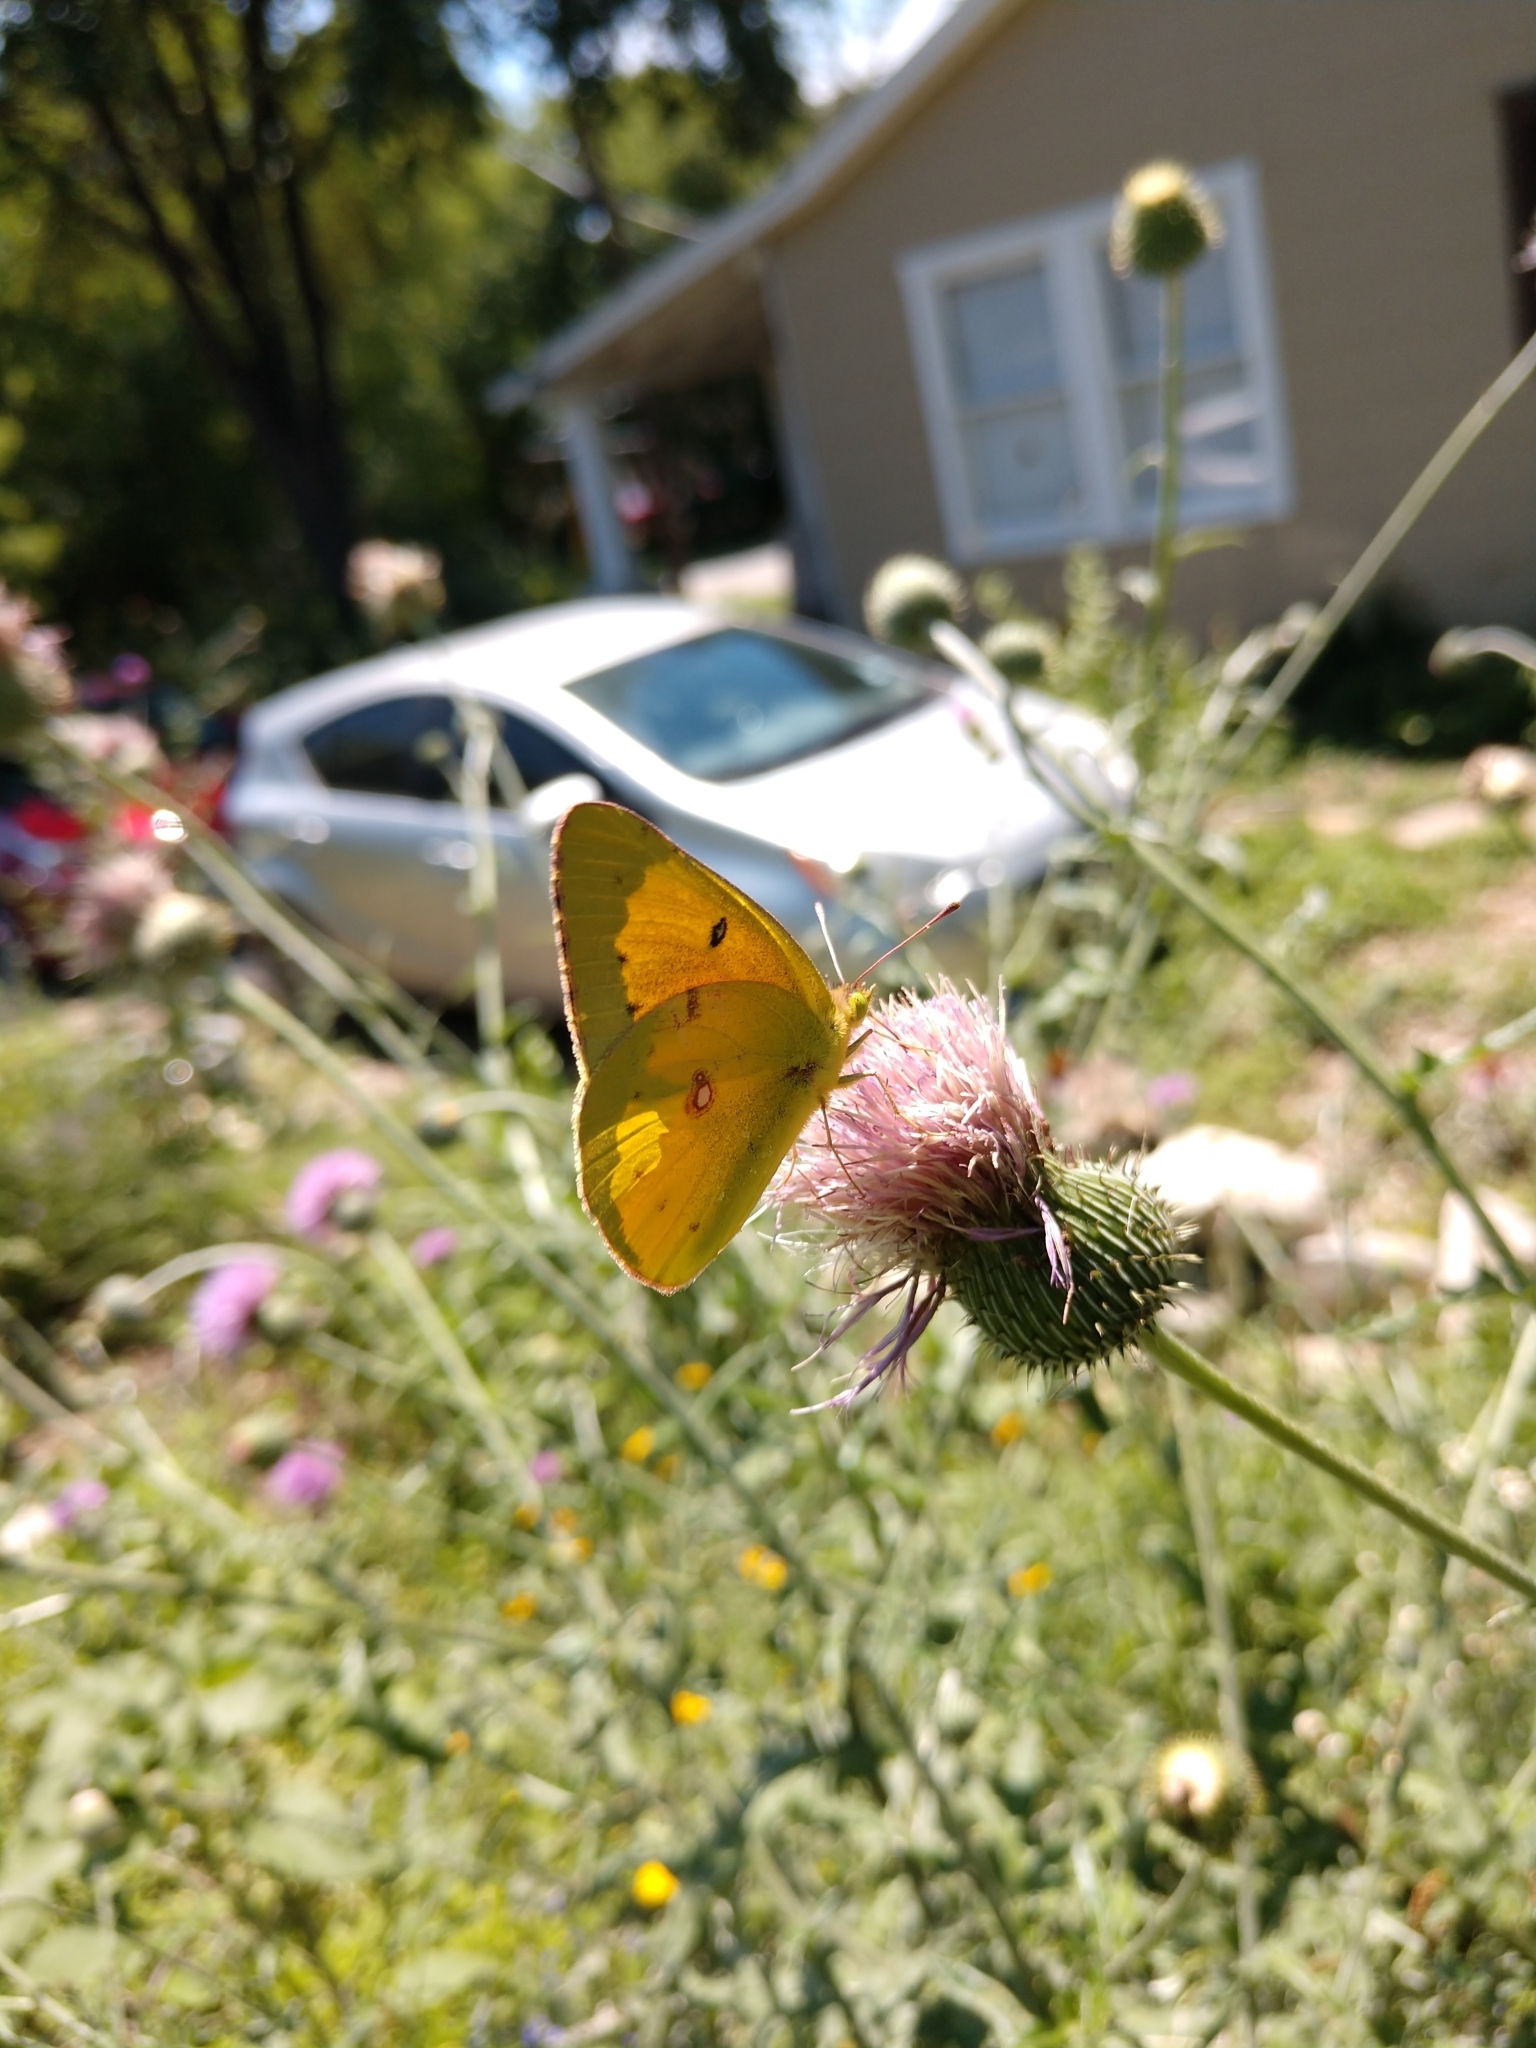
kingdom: Animalia
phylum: Arthropoda
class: Insecta
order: Lepidoptera
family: Pieridae
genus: Colias
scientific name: Colias eurytheme
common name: Alfalfa butterfly
